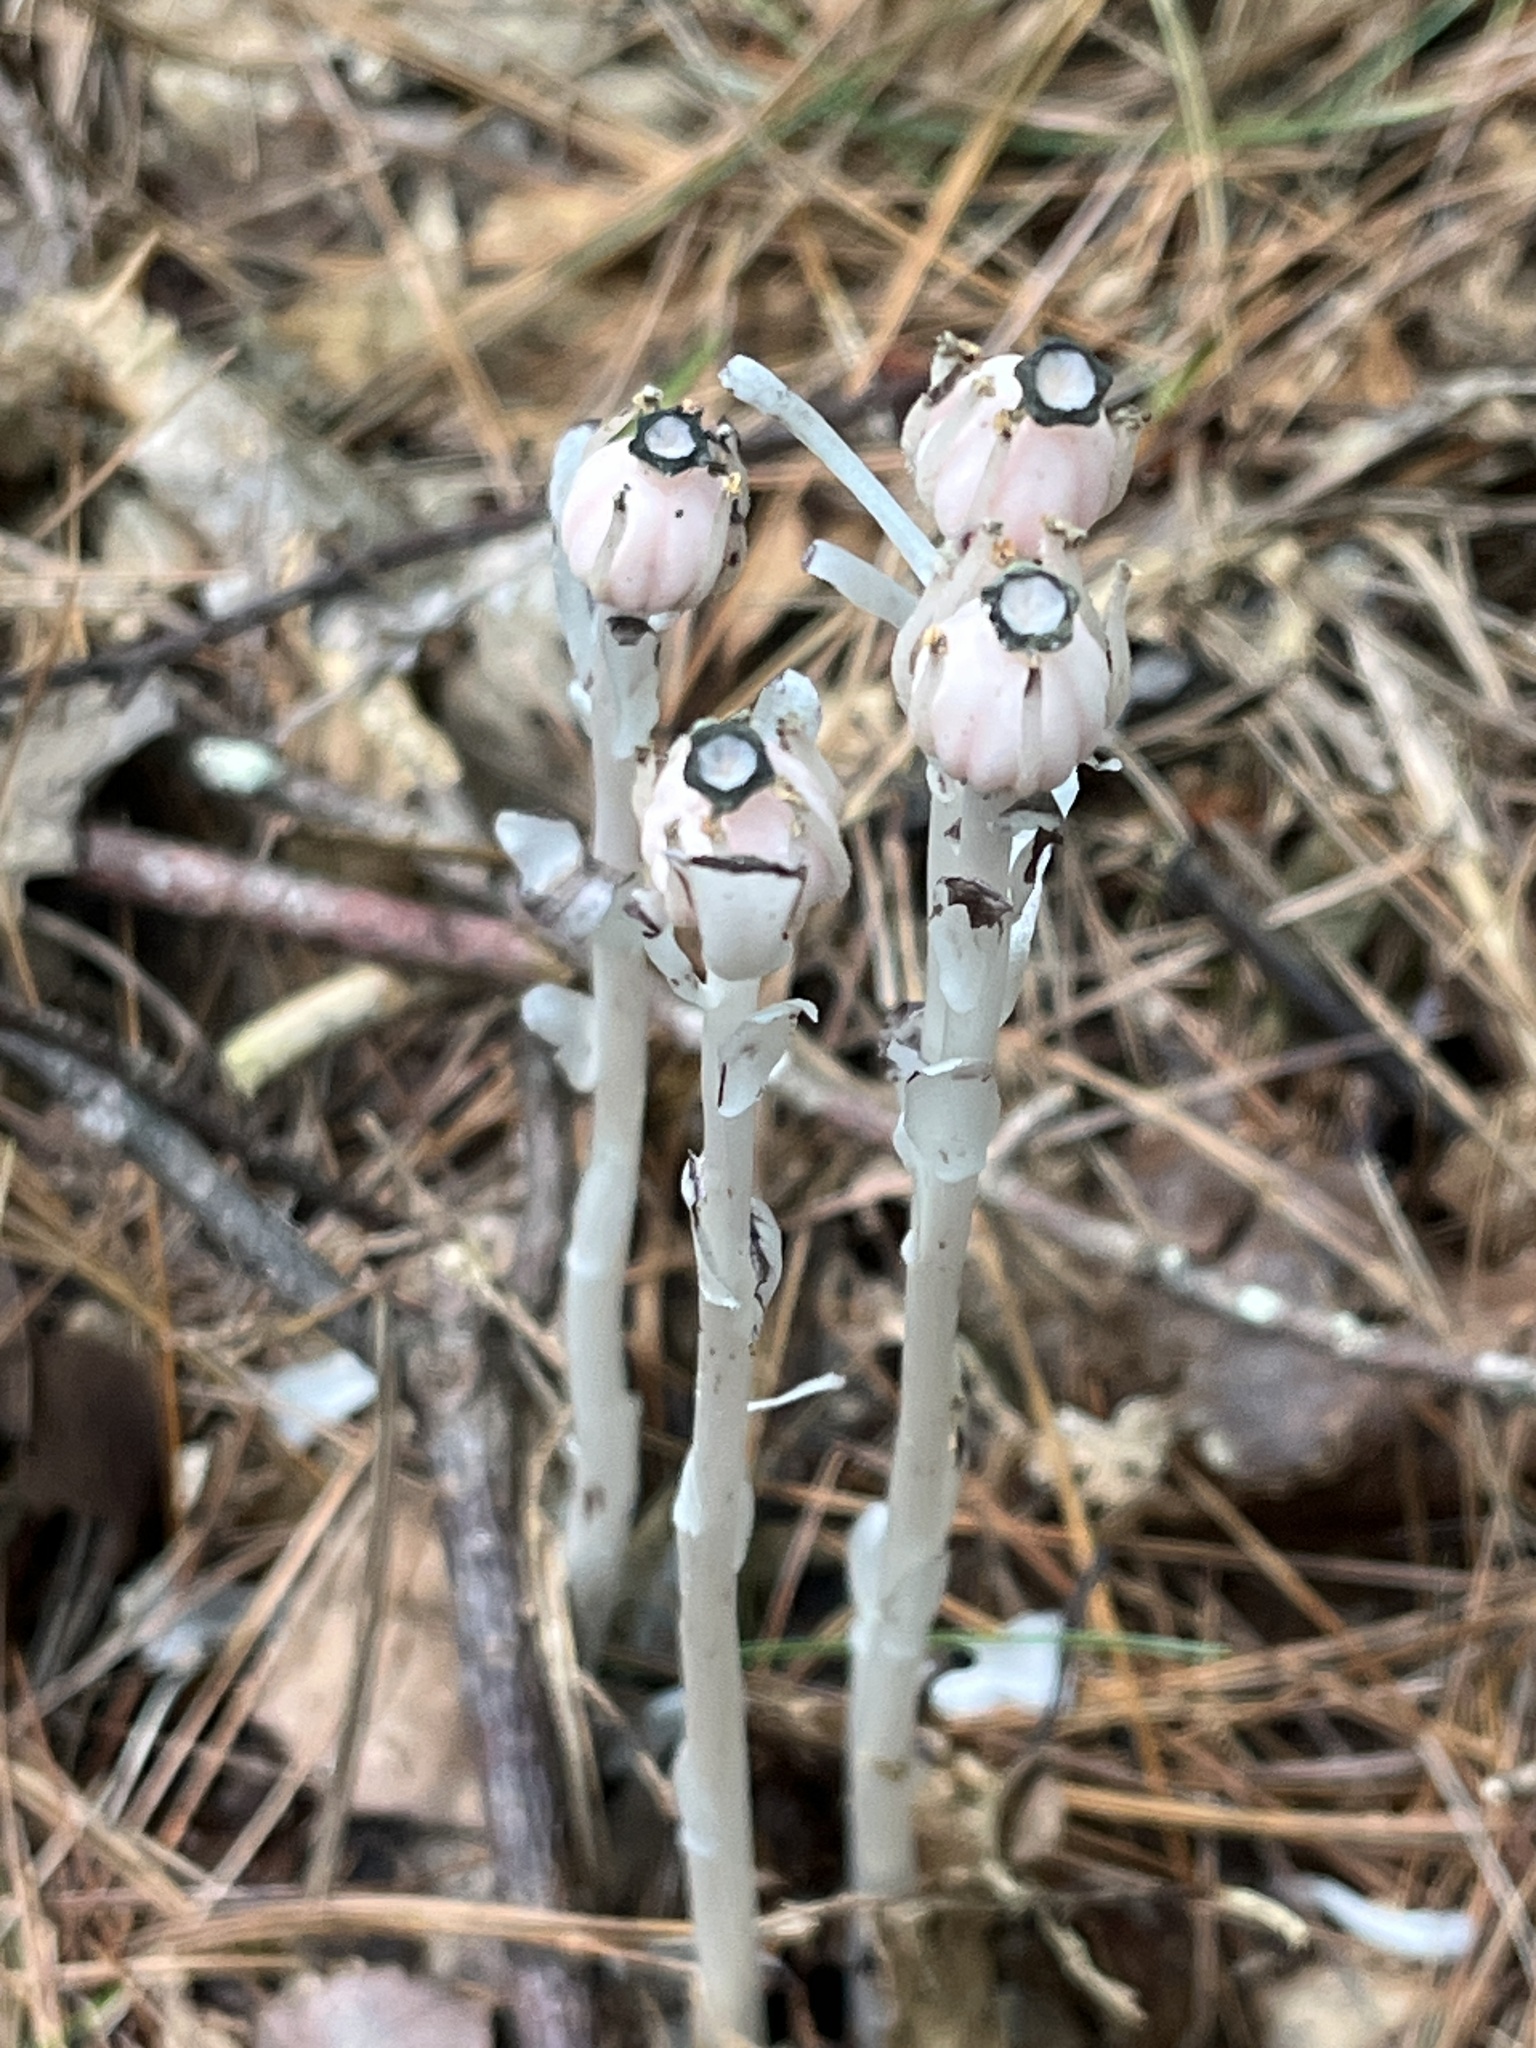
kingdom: Plantae
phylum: Tracheophyta
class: Magnoliopsida
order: Ericales
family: Ericaceae
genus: Monotropa
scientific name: Monotropa uniflora
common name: Convulsion root
